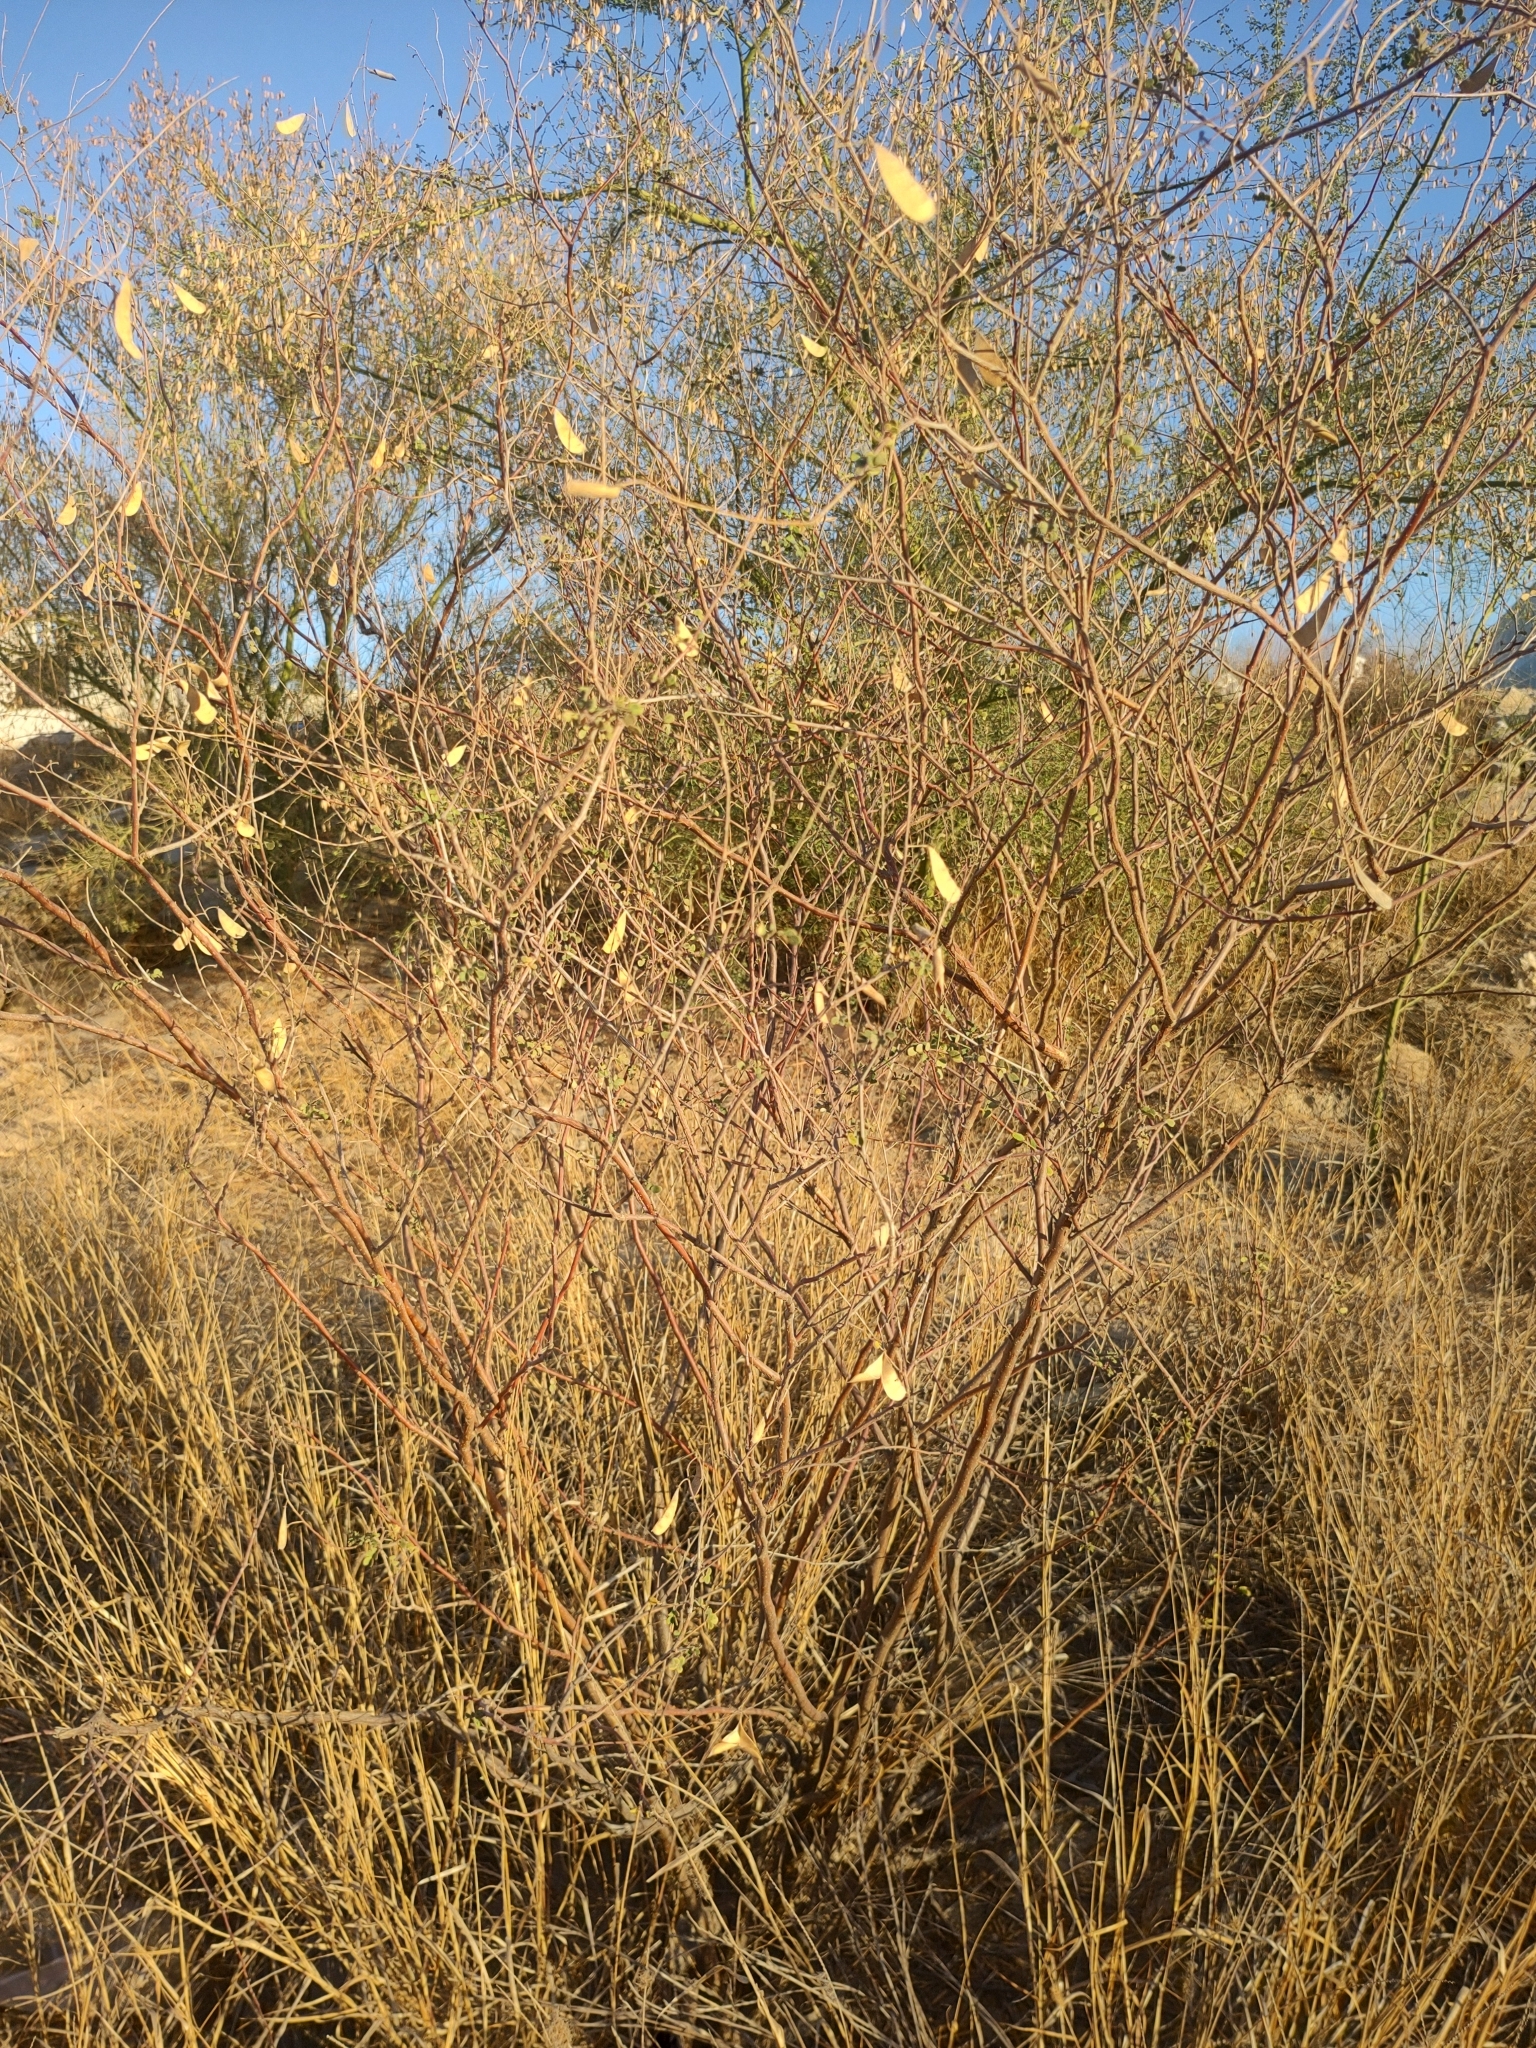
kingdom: Plantae
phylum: Tracheophyta
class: Magnoliopsida
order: Fabales
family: Fabaceae
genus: Erythrostemon
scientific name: Erythrostemon pannosus
